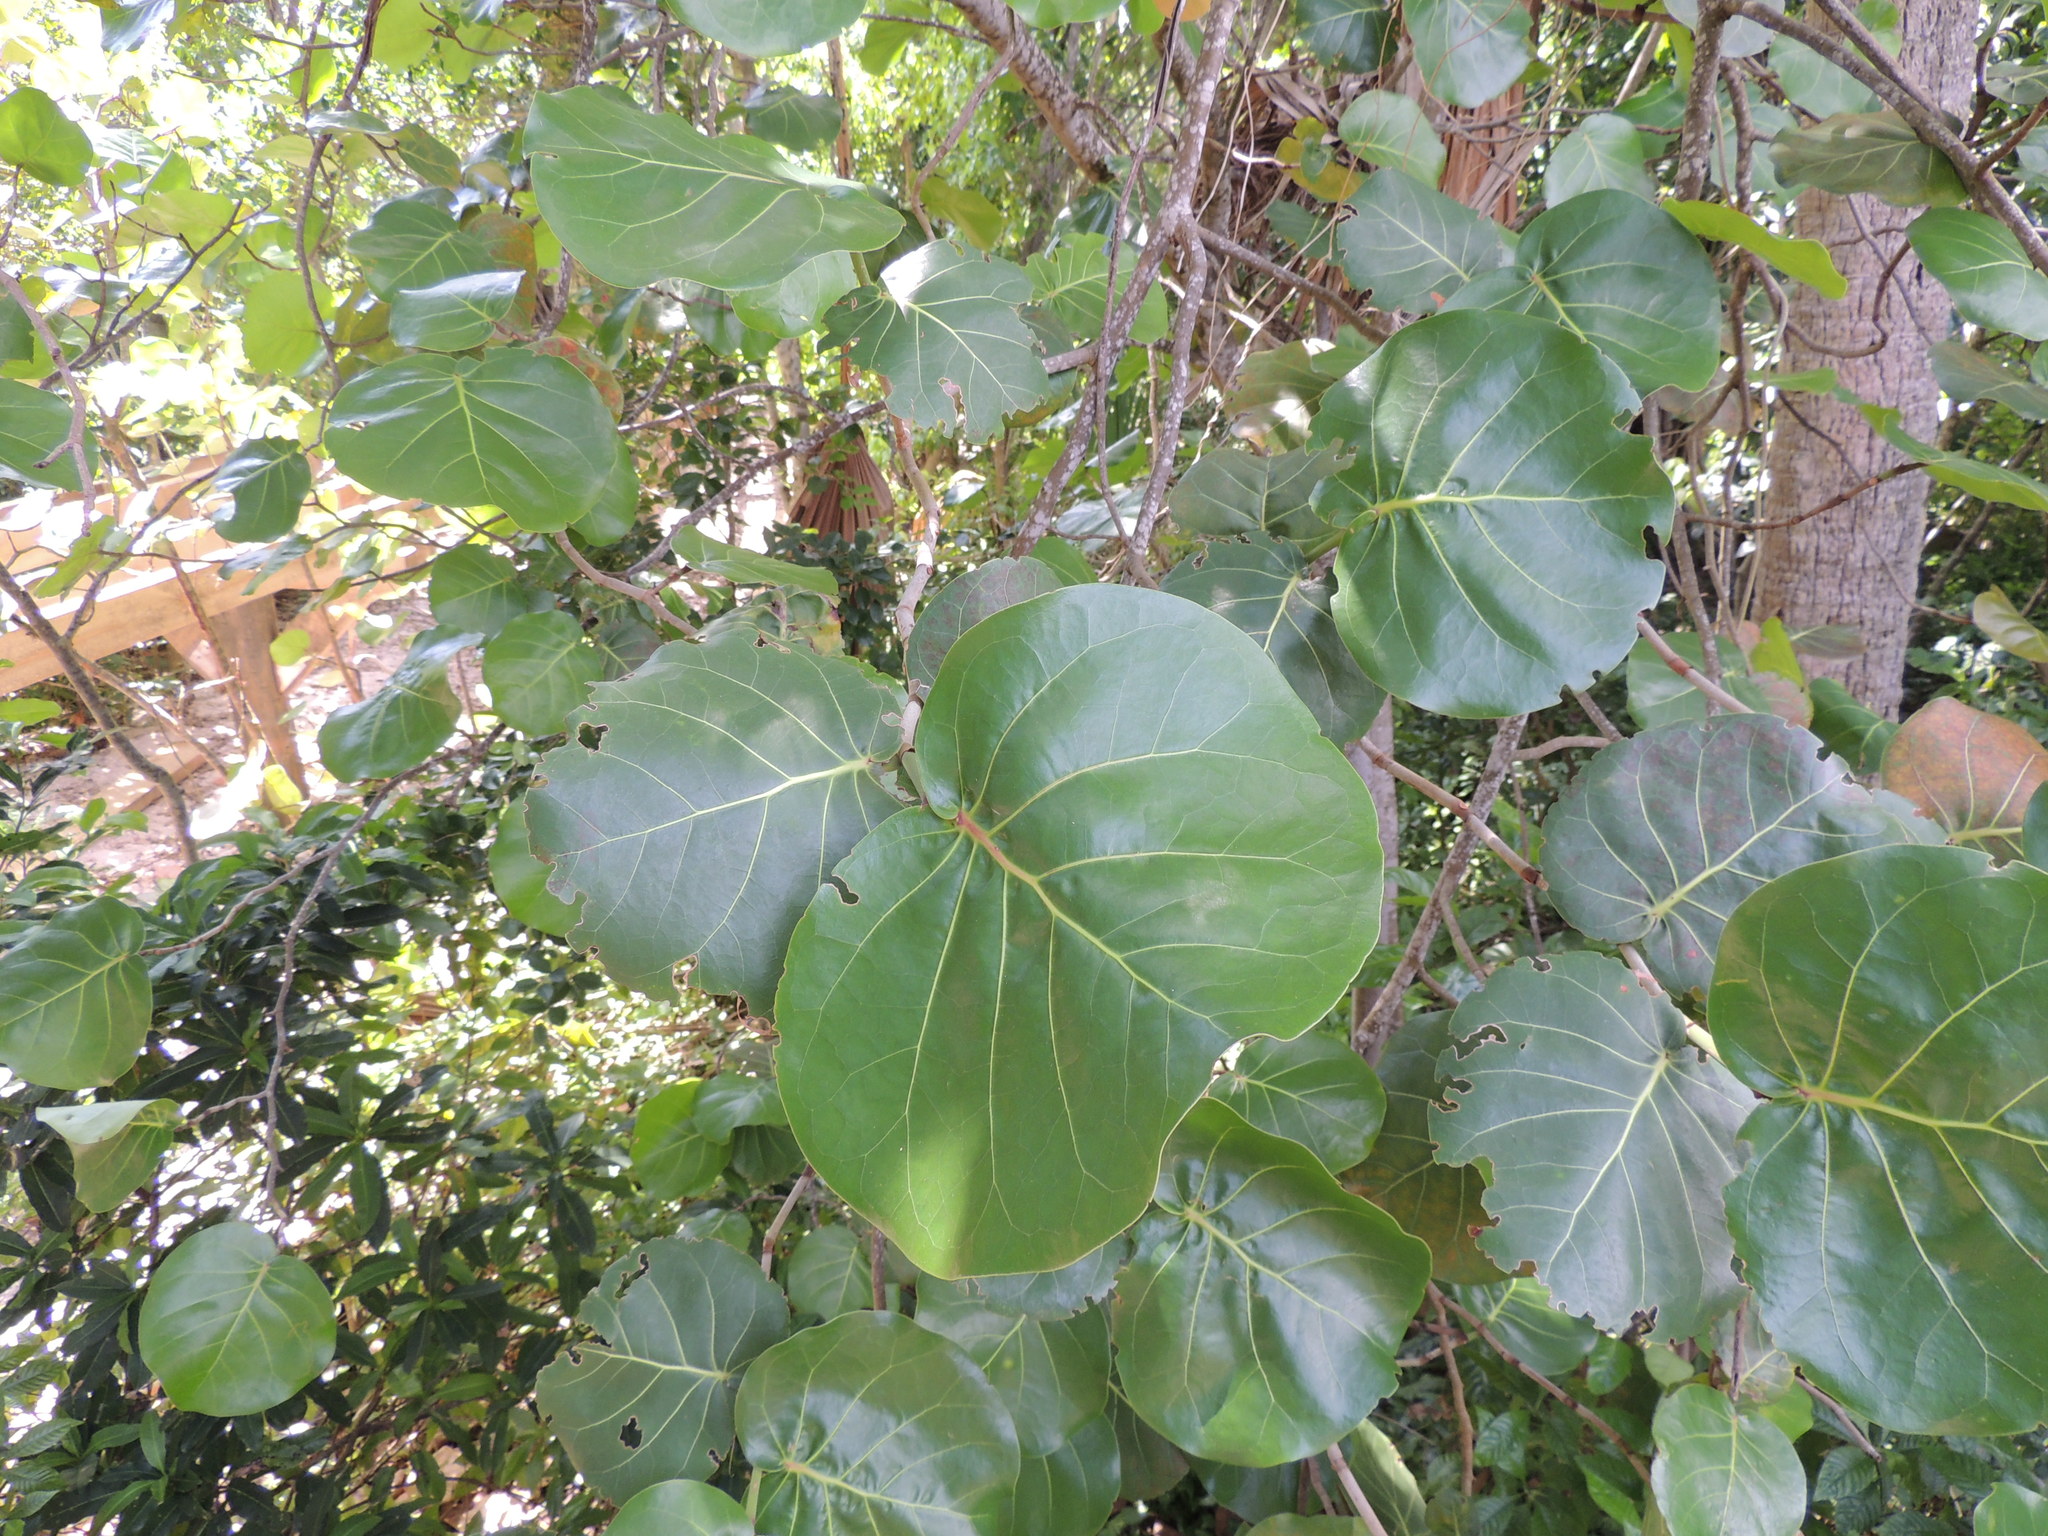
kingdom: Plantae
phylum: Tracheophyta
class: Magnoliopsida
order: Caryophyllales
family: Polygonaceae
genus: Coccoloba
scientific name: Coccoloba uvifera
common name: Seagrape
